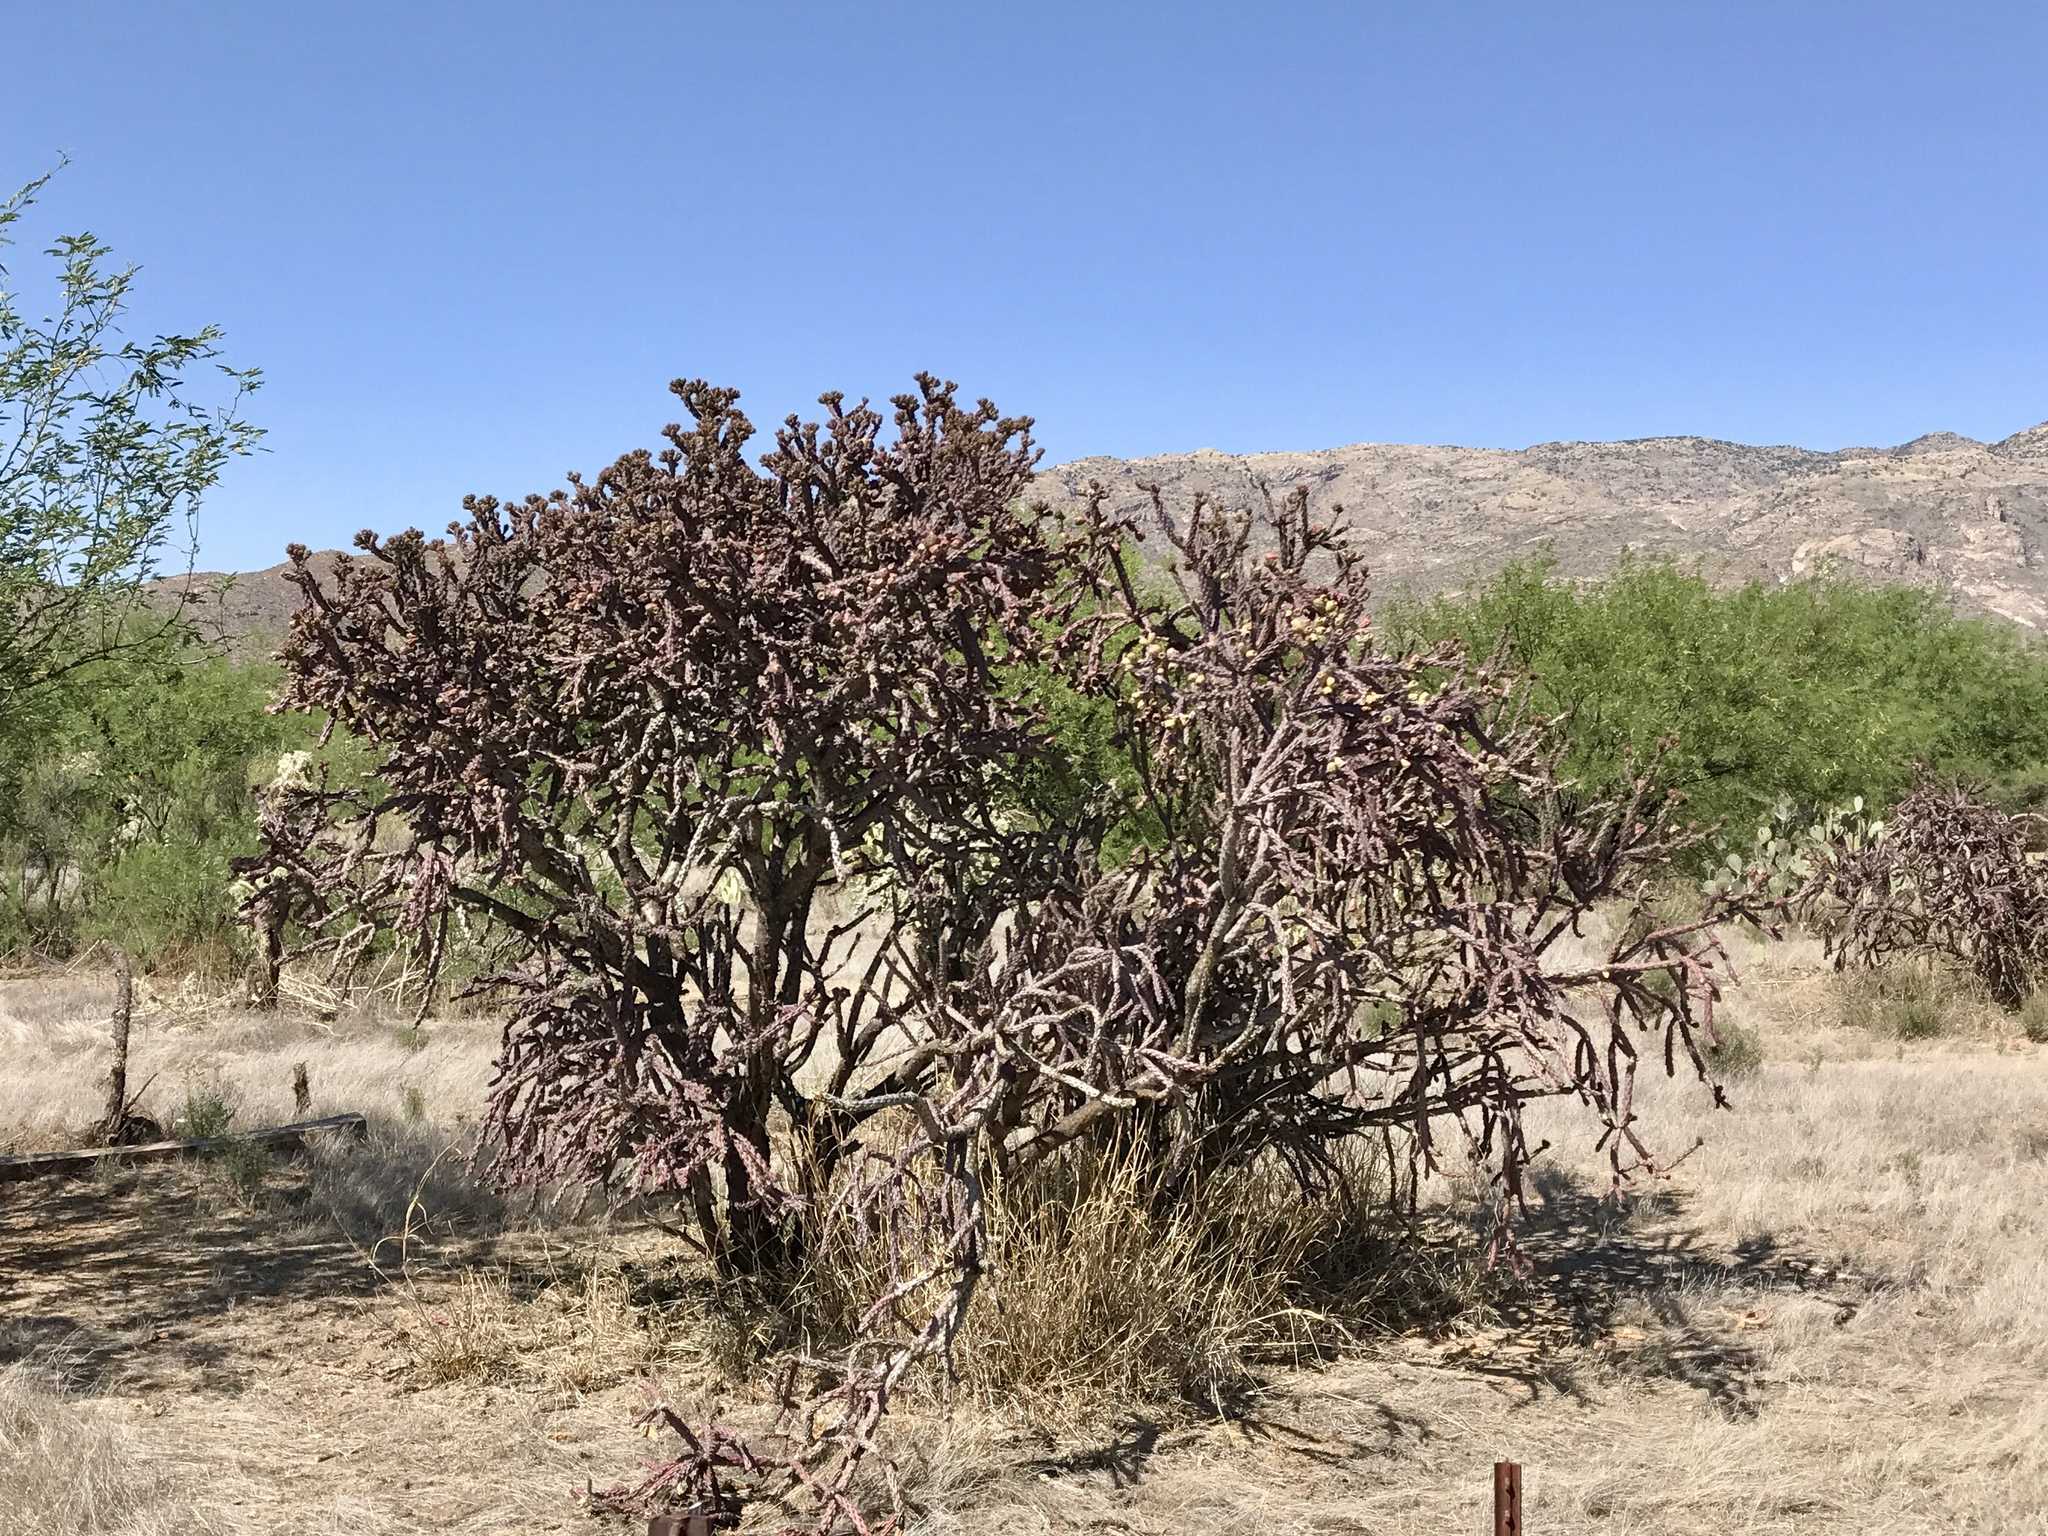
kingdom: Plantae
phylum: Tracheophyta
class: Magnoliopsida
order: Caryophyllales
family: Cactaceae
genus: Cylindropuntia
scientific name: Cylindropuntia thurberi
